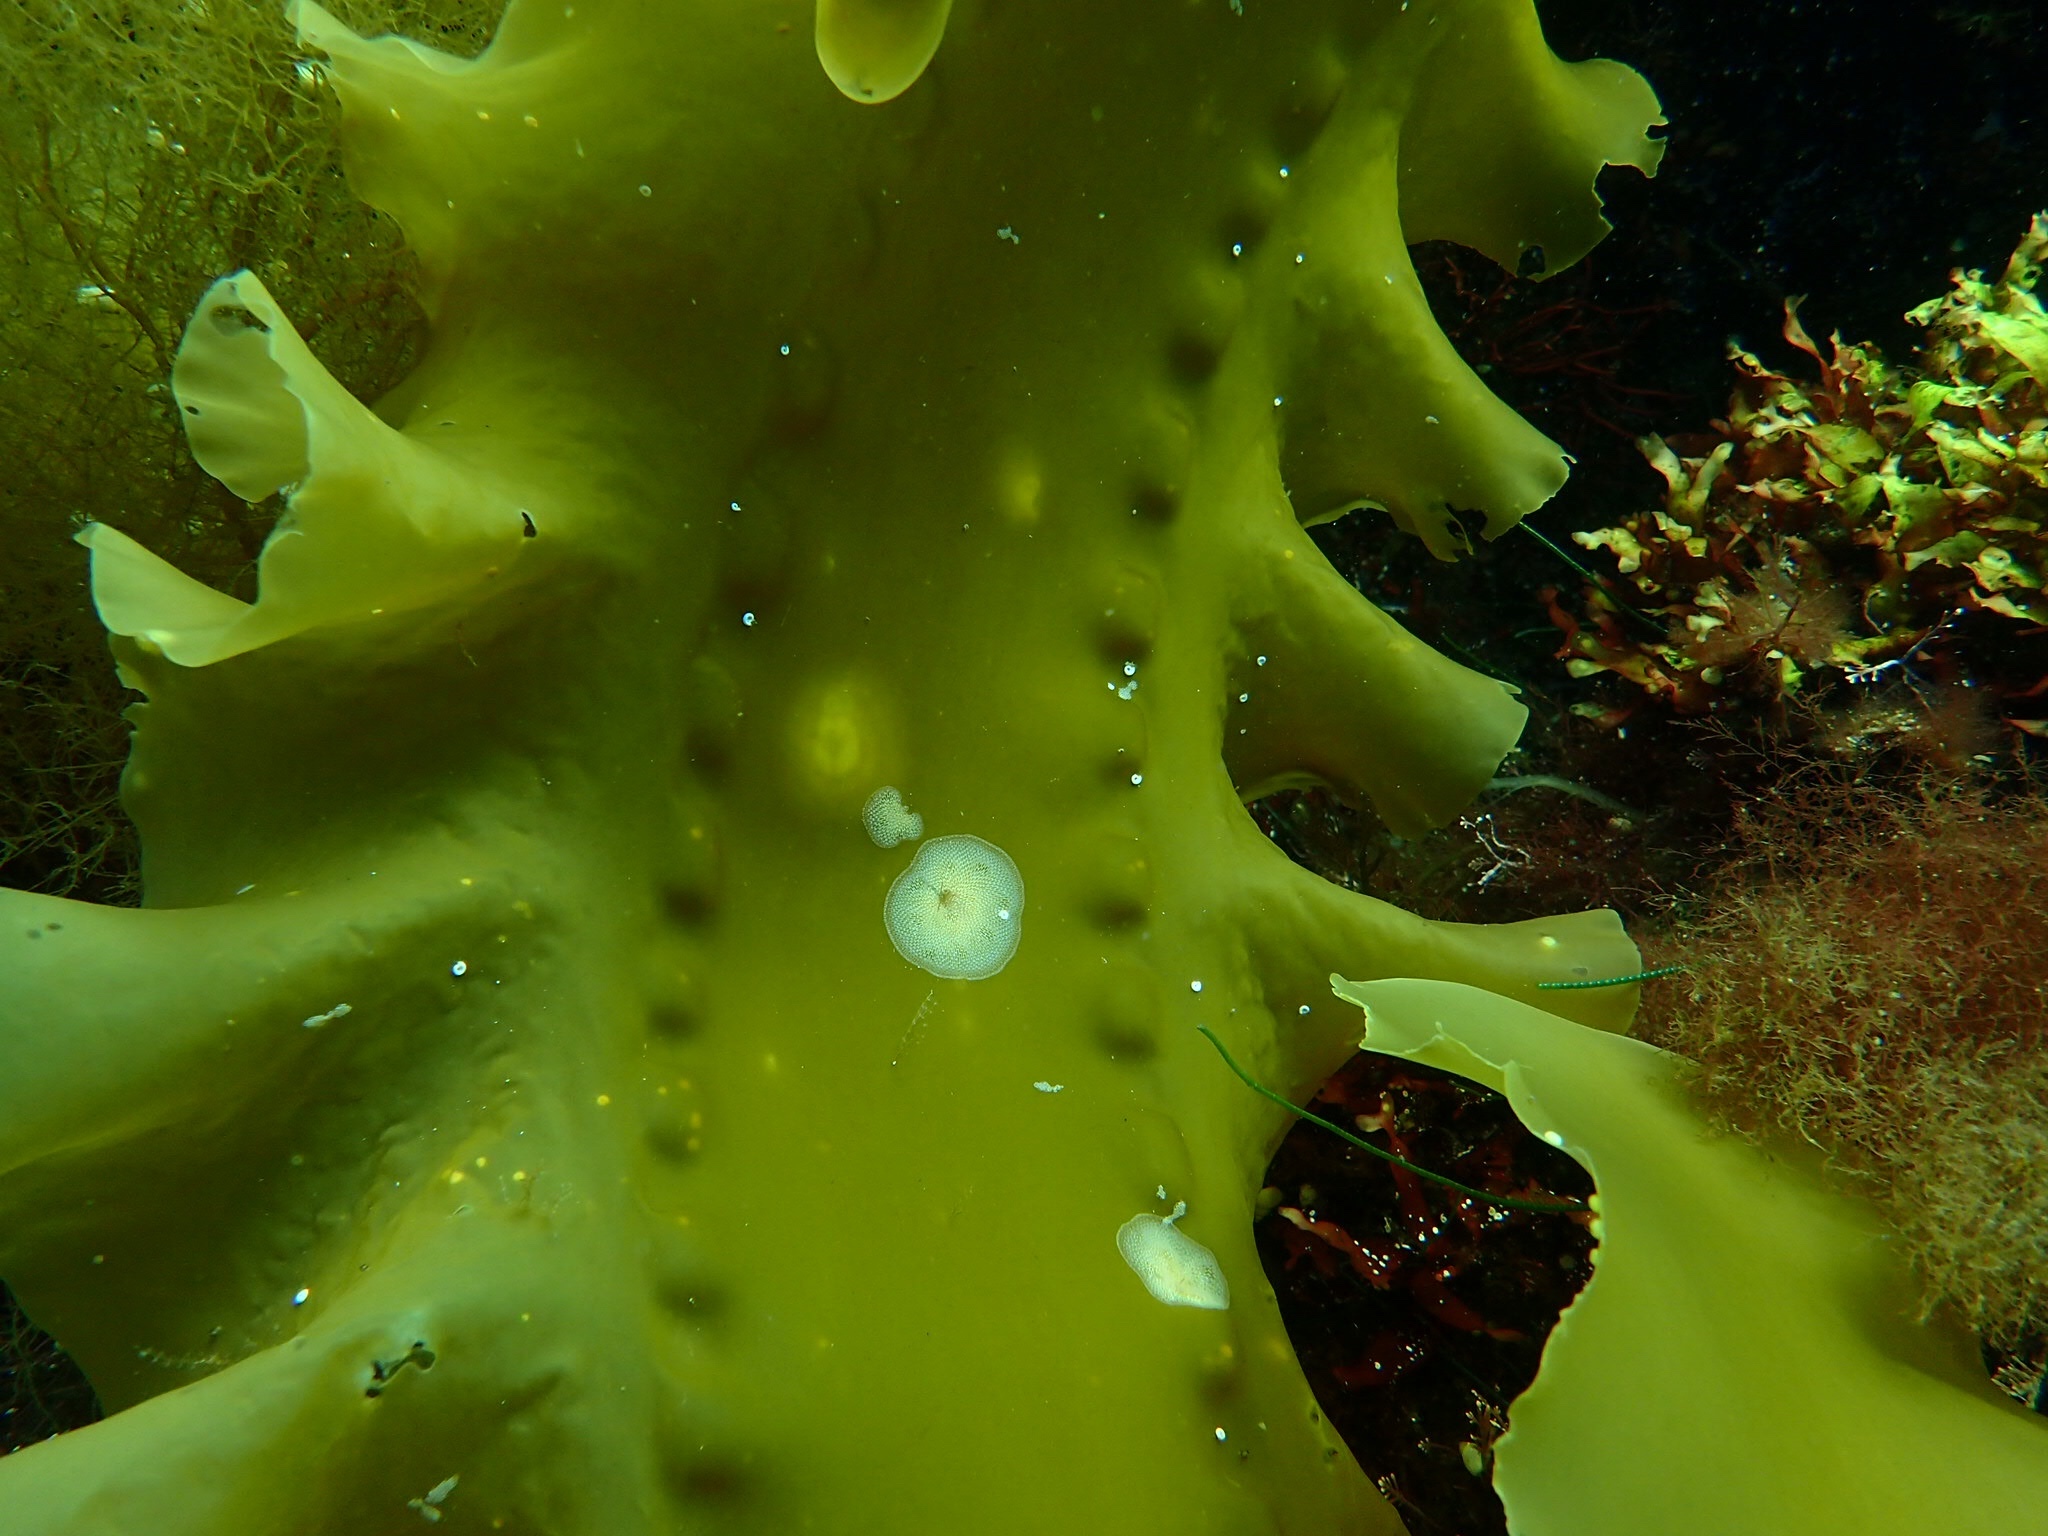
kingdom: Chromista
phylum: Ochrophyta
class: Phaeophyceae
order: Laminariales
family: Laminariaceae
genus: Saccharina
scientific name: Saccharina latissima
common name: Poor man's weather glass
